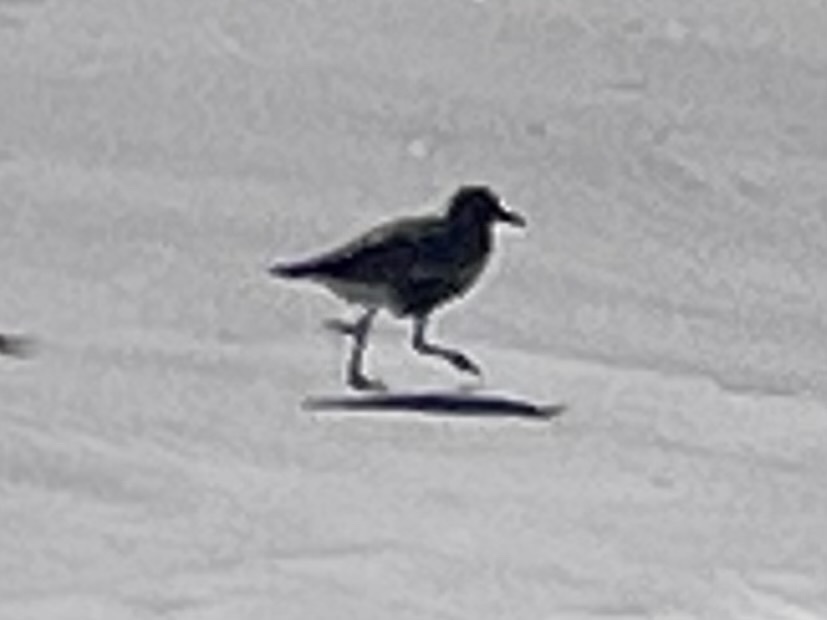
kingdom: Animalia
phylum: Chordata
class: Aves
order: Charadriiformes
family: Charadriidae
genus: Pluvialis
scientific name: Pluvialis squatarola
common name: Grey plover
